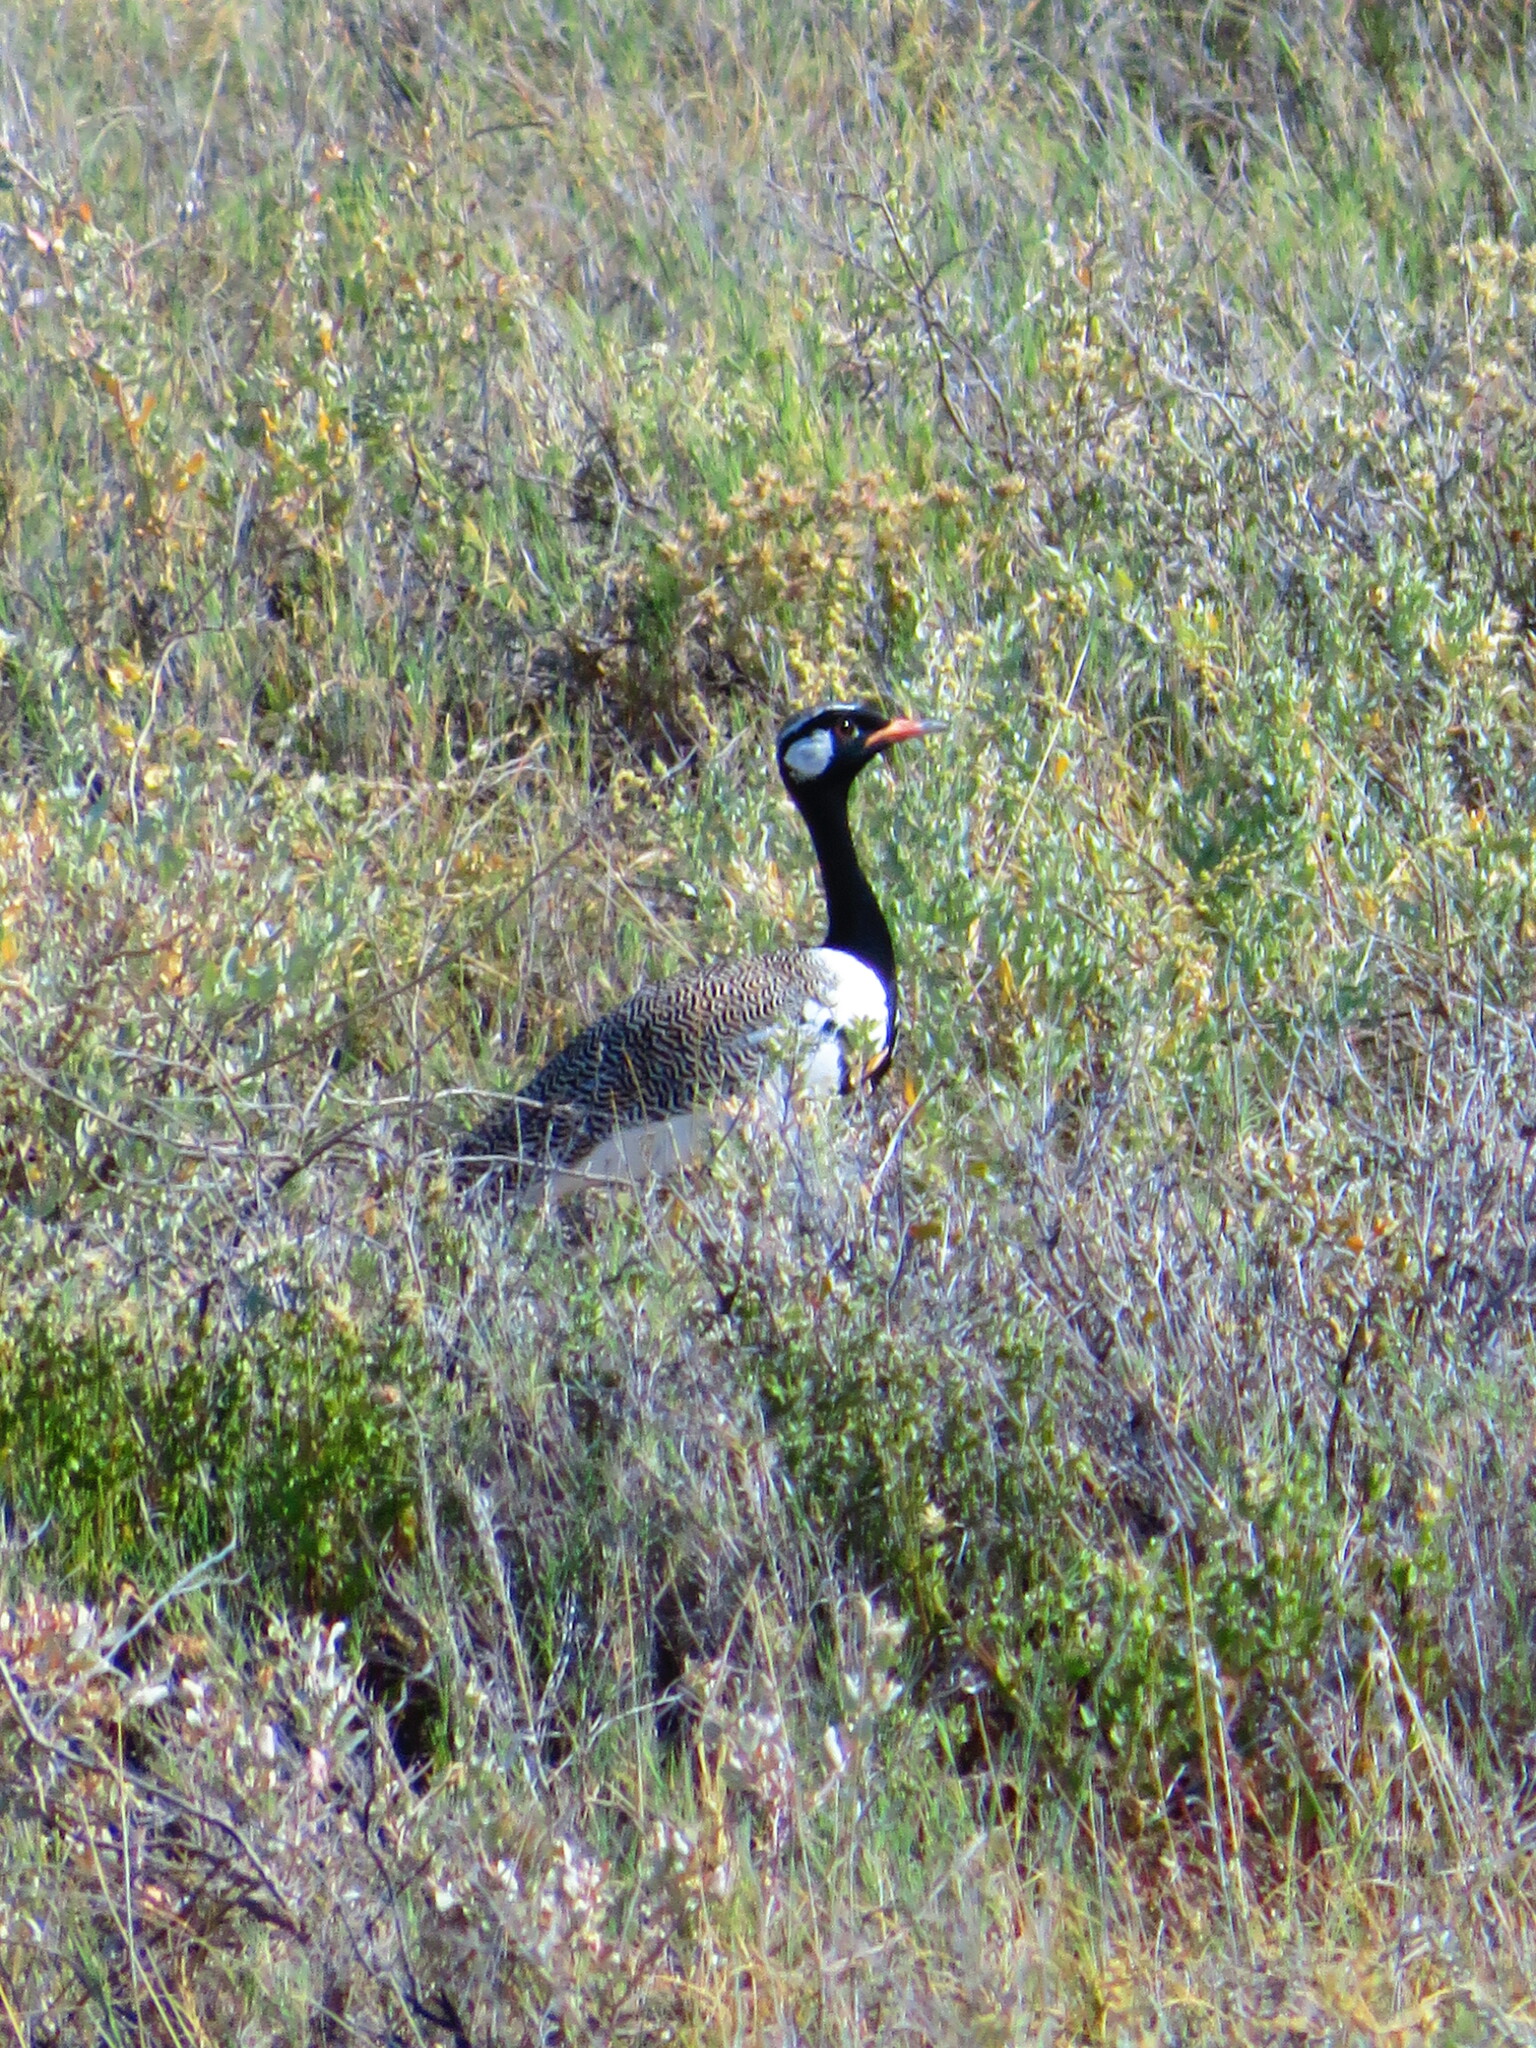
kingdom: Animalia
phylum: Chordata
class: Aves
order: Otidiformes
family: Otididae
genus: Afrotis
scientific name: Afrotis afraoides
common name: Northern black korhaan
